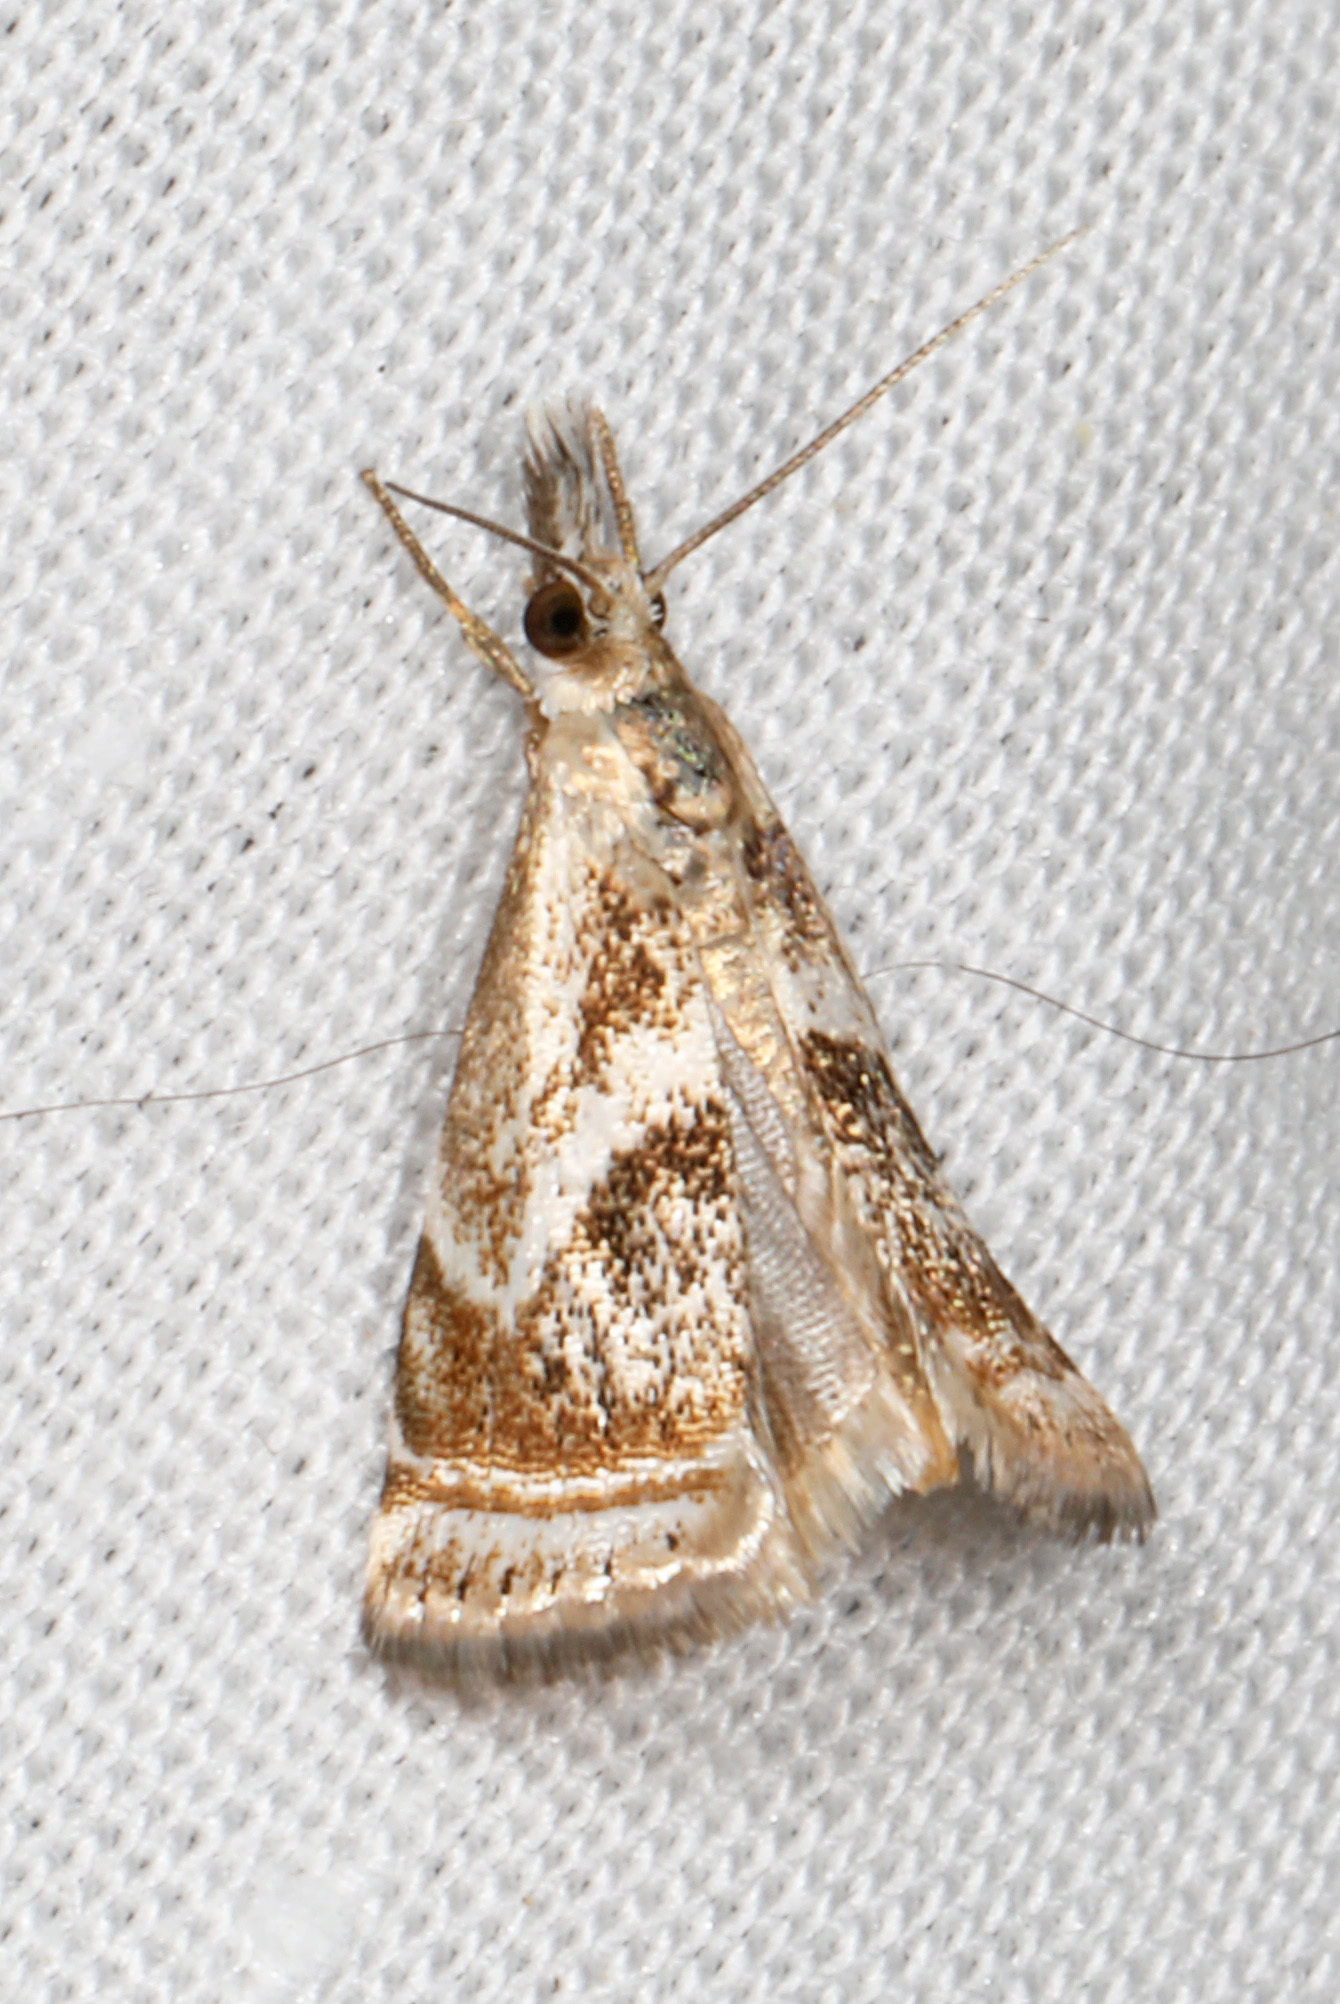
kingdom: Animalia
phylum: Arthropoda
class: Insecta
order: Lepidoptera
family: Crambidae
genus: Microcrambus
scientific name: Microcrambus elegans
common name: Elegant grass-veneer
